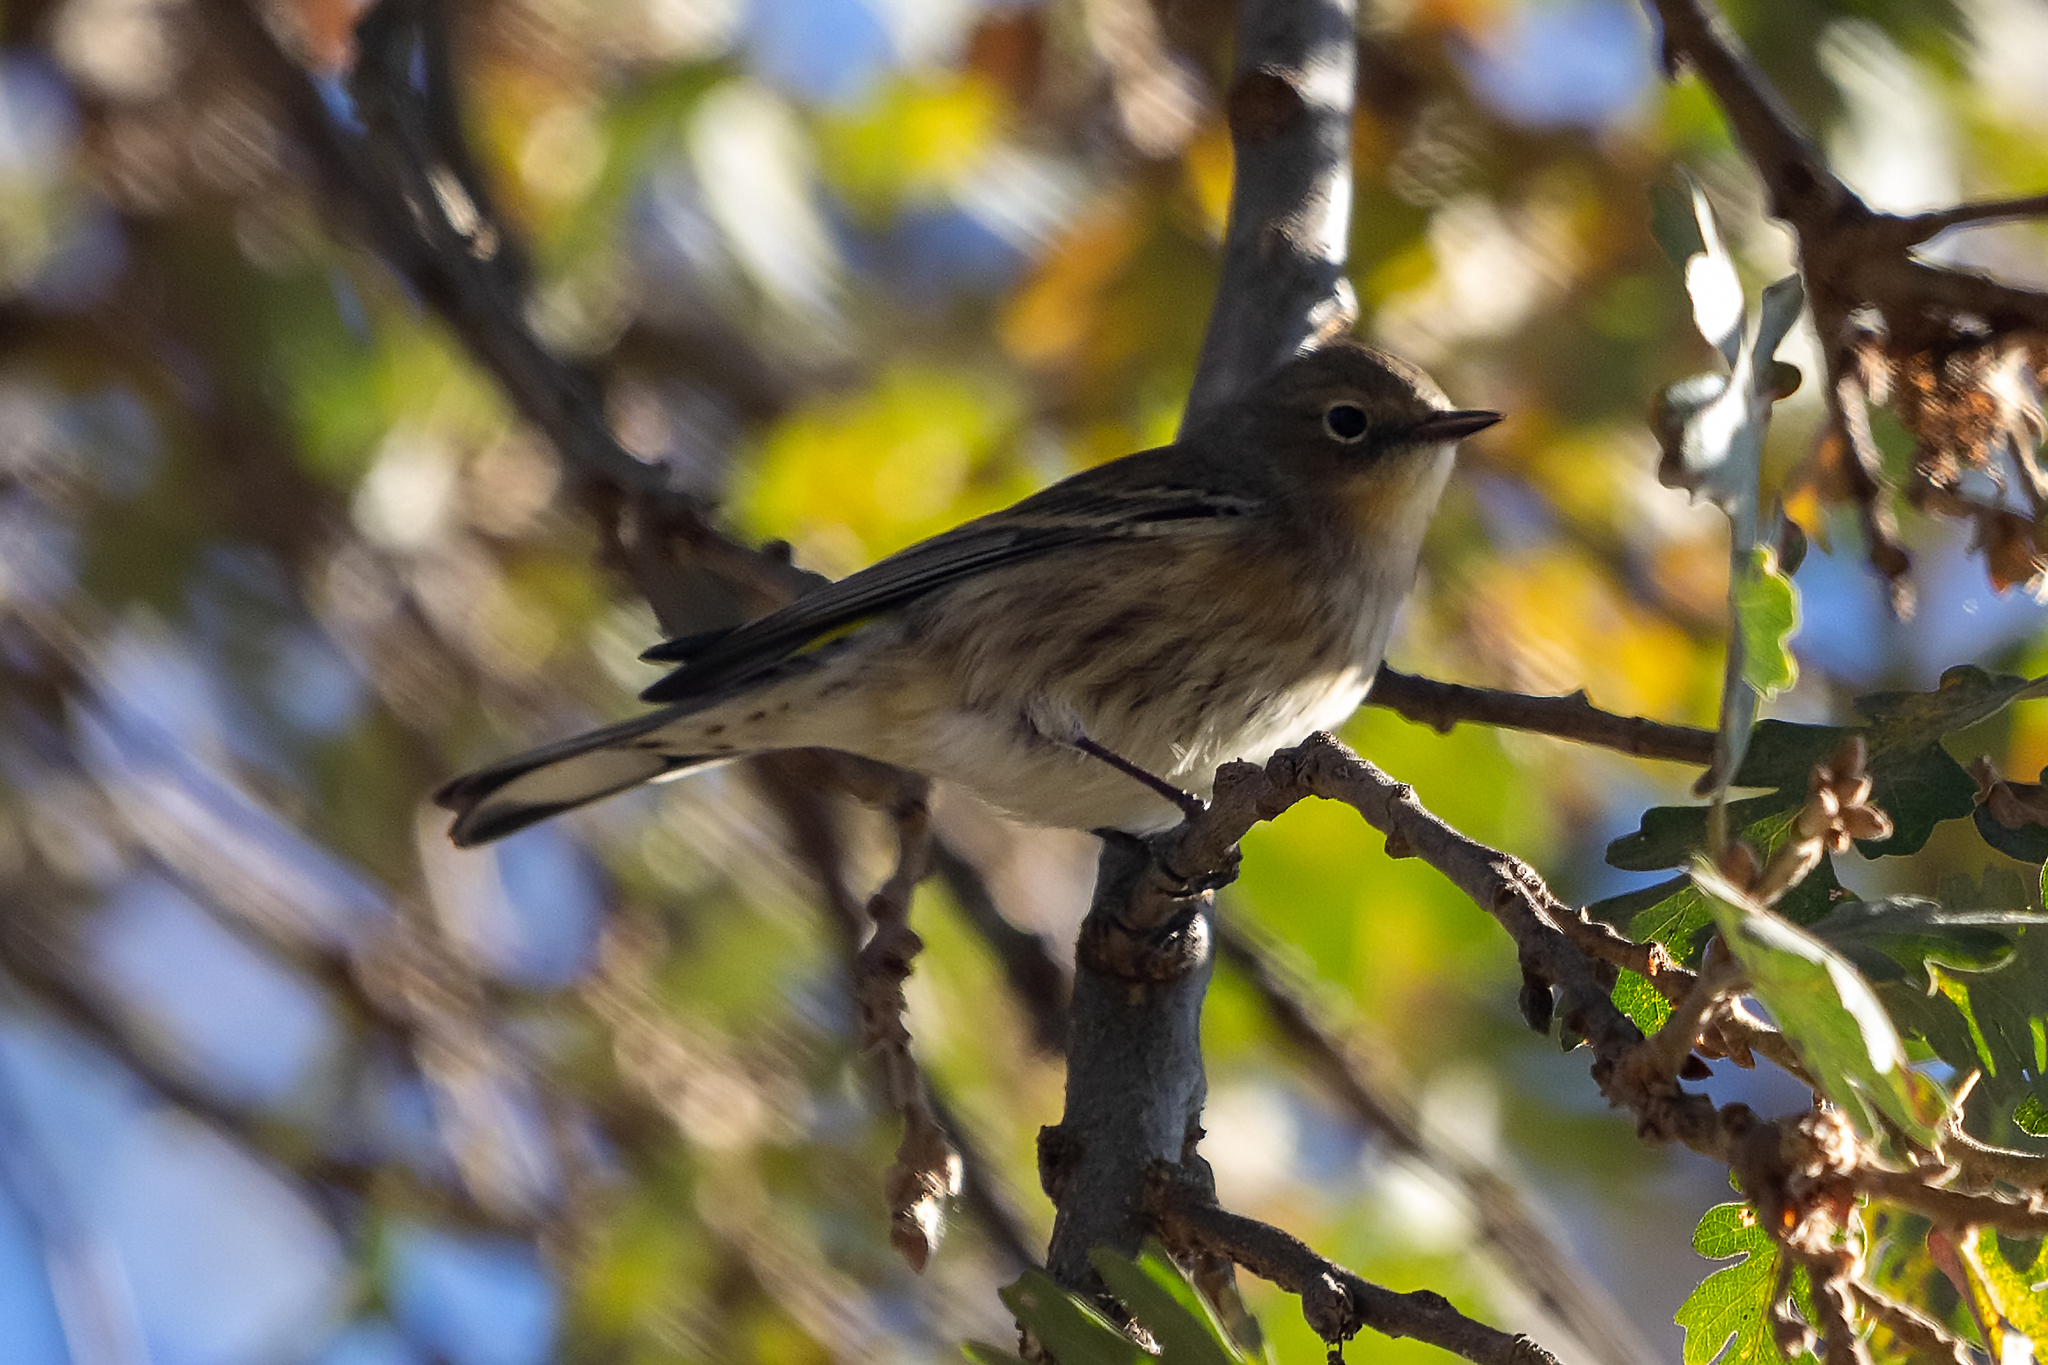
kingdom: Animalia
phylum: Chordata
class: Aves
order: Passeriformes
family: Parulidae
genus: Setophaga
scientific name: Setophaga coronata
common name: Myrtle warbler
